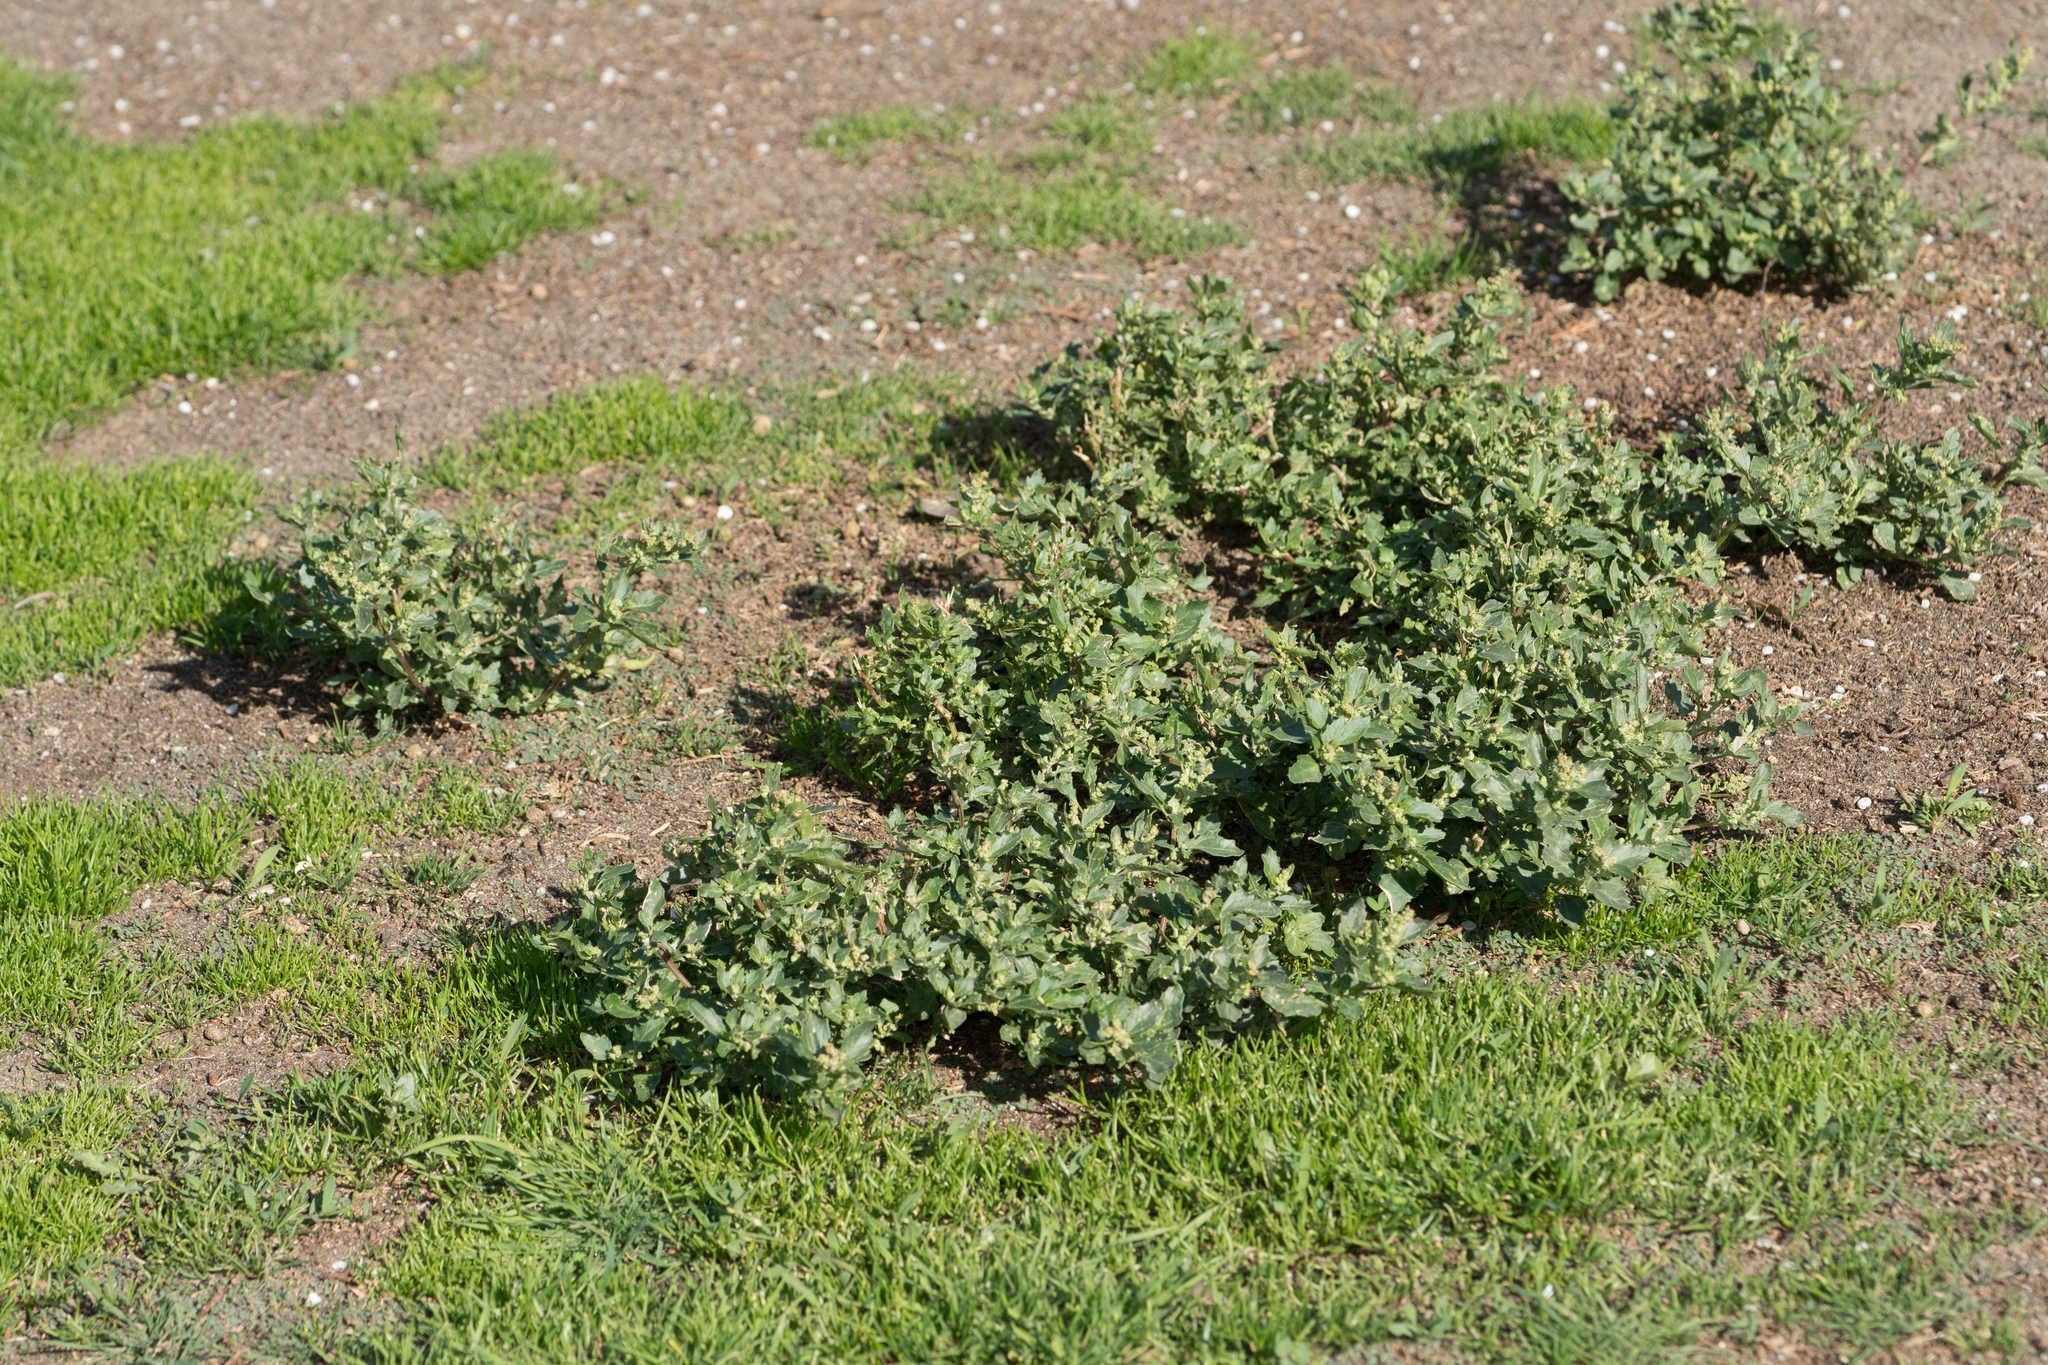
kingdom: Plantae
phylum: Tracheophyta
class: Magnoliopsida
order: Caryophyllales
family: Amaranthaceae
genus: Chenopodiastrum
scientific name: Chenopodiastrum murale
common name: Sowbane
